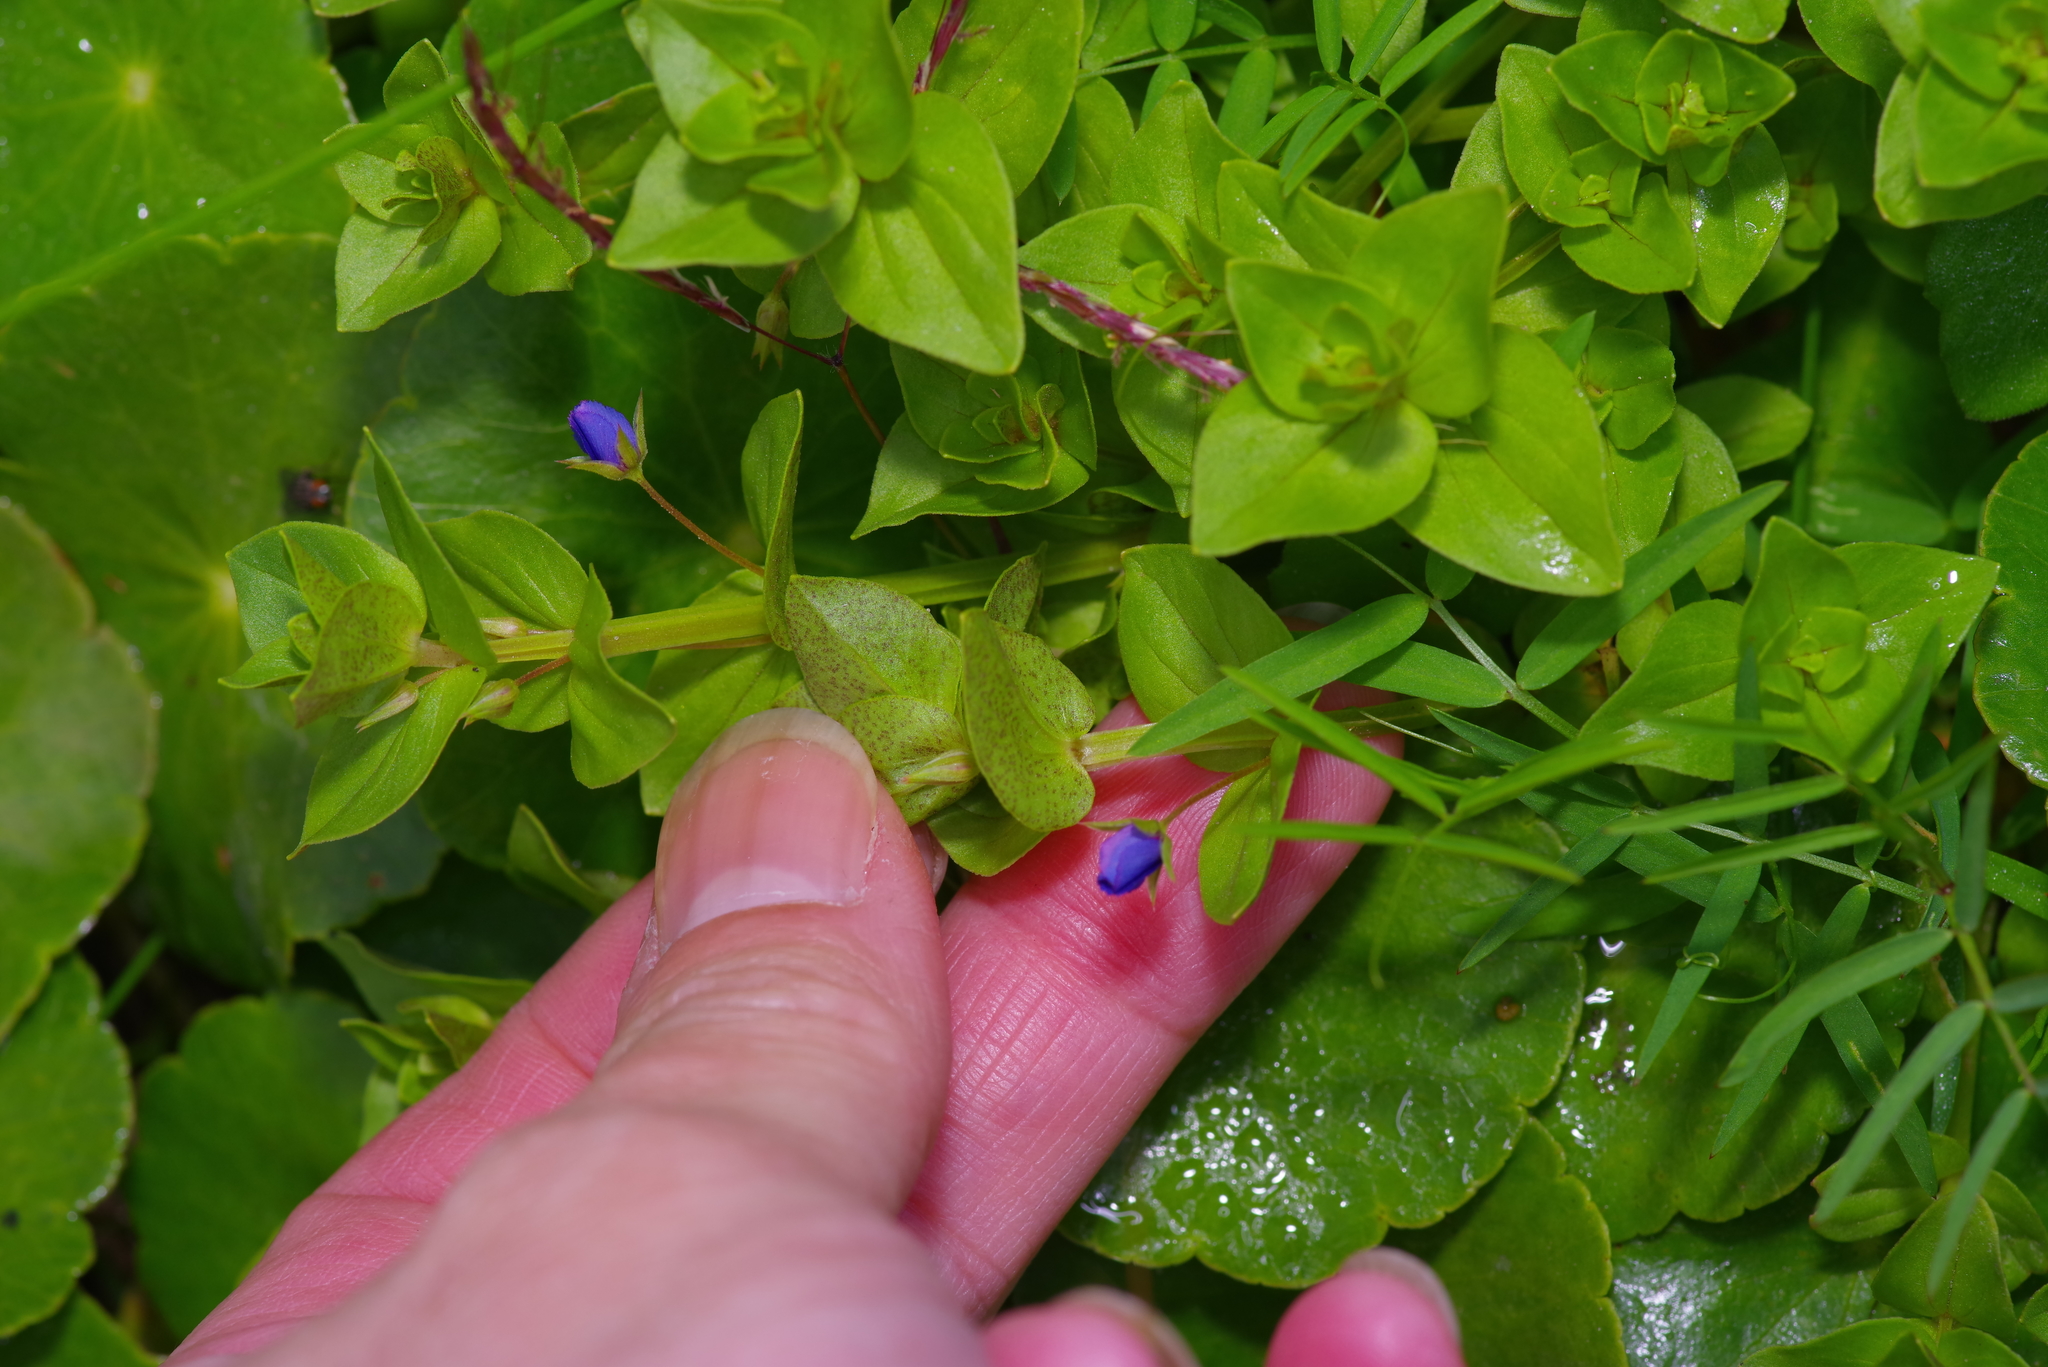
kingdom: Plantae
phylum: Tracheophyta
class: Magnoliopsida
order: Ericales
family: Primulaceae
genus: Lysimachia
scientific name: Lysimachia loeflingii
